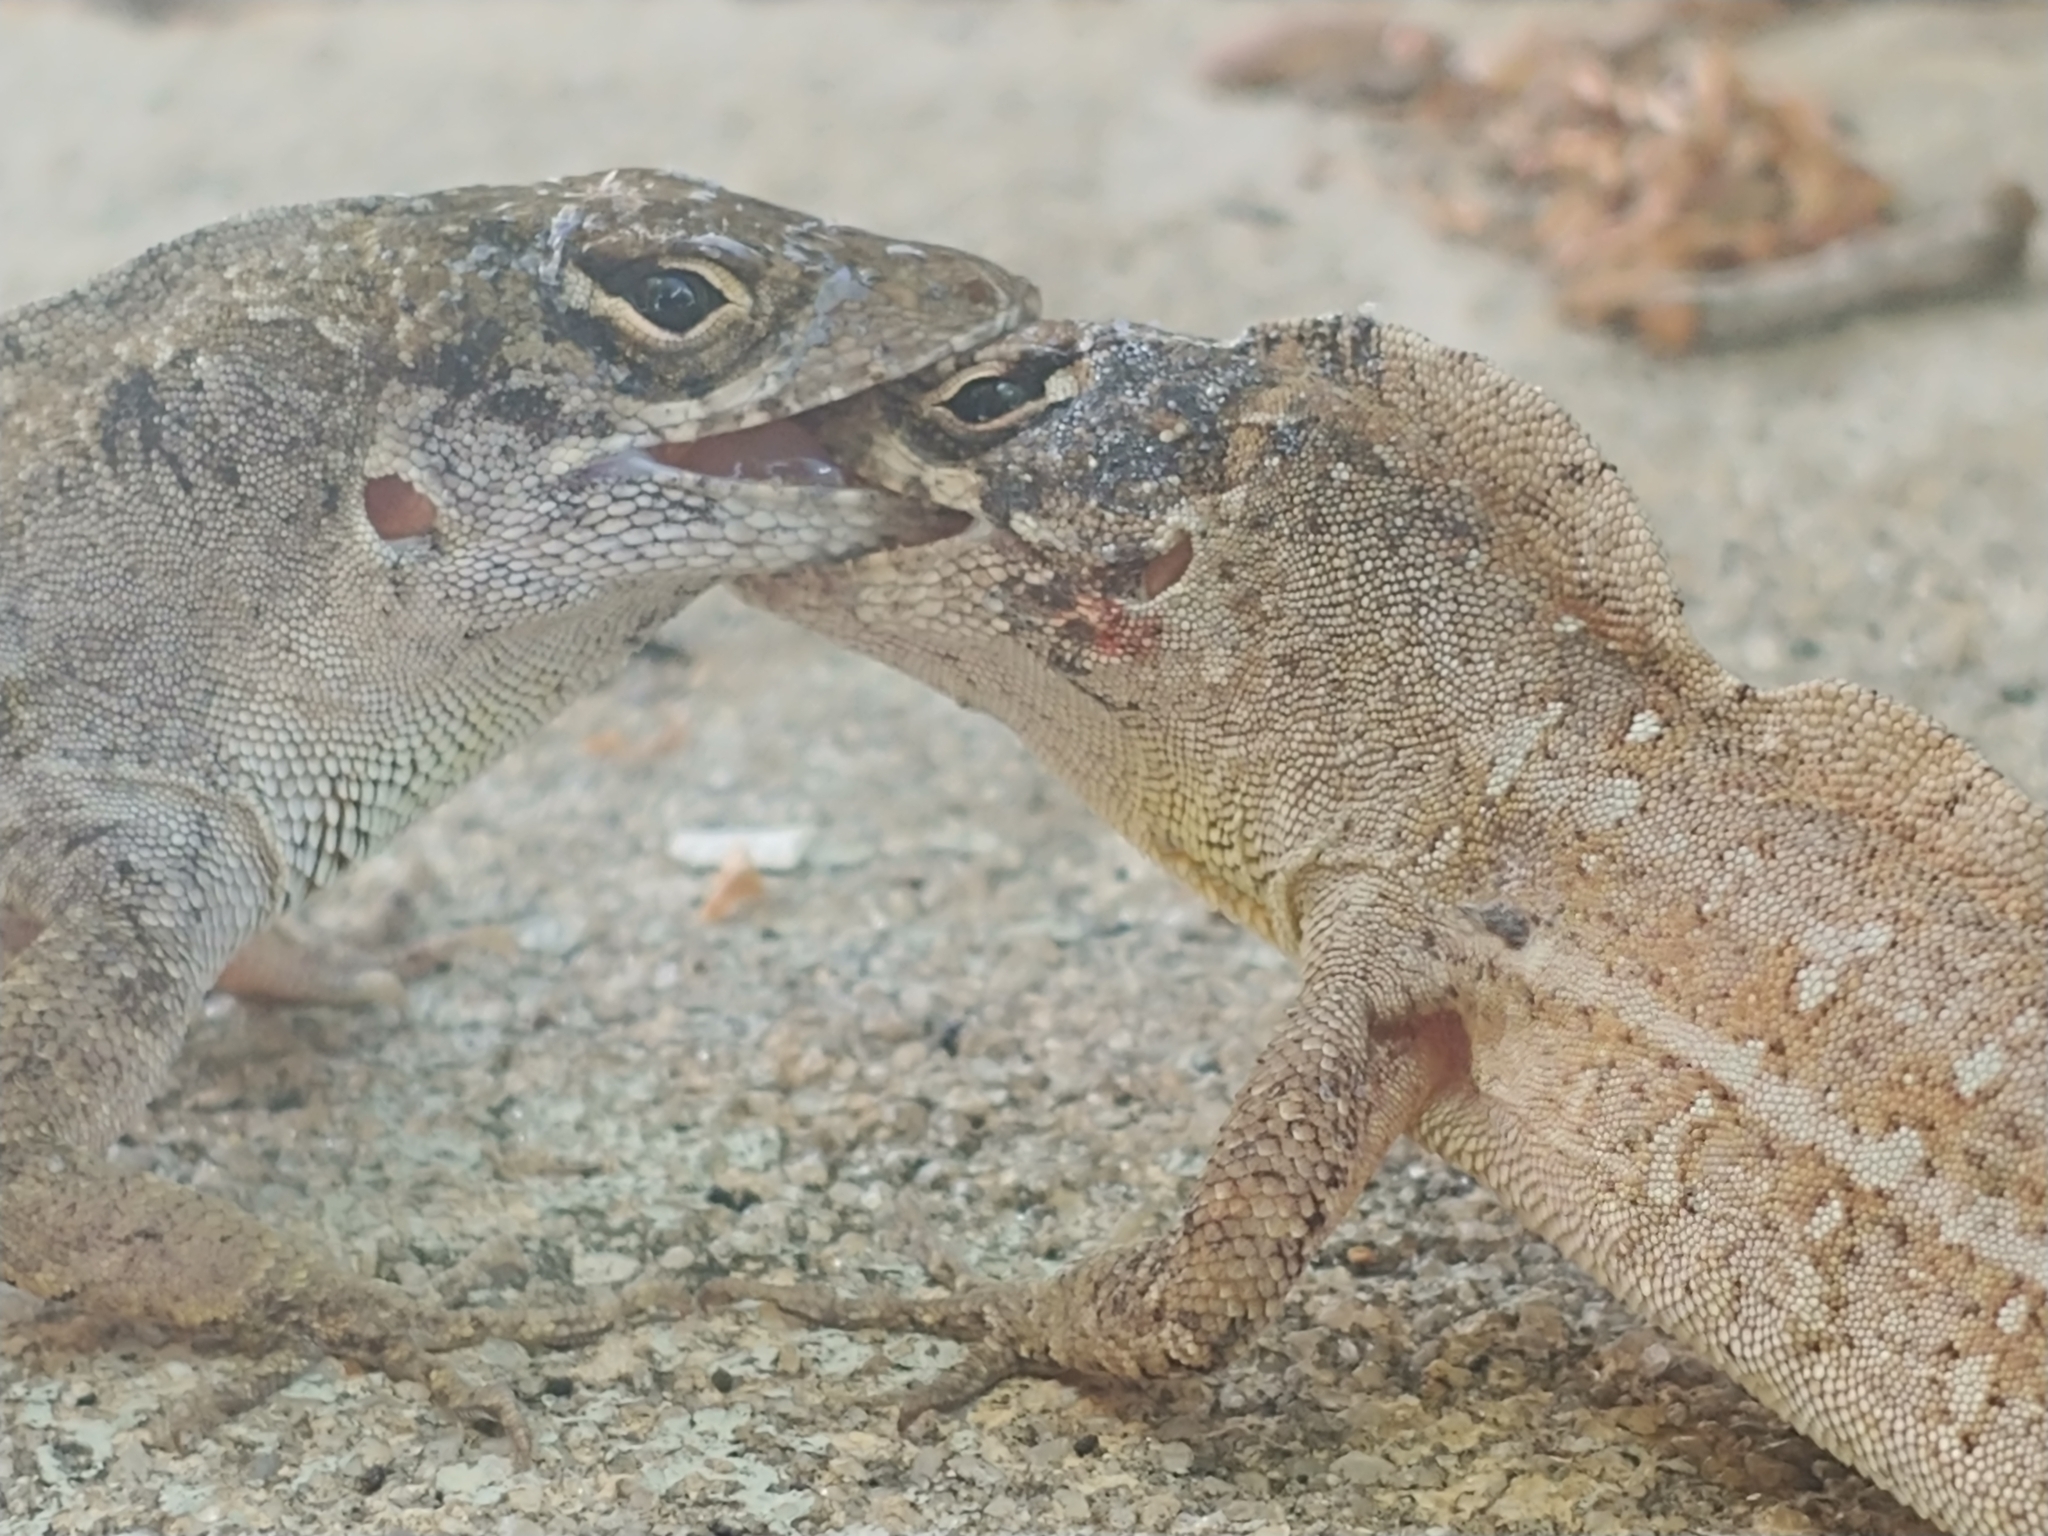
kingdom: Animalia
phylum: Chordata
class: Squamata
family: Dactyloidae
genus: Anolis
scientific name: Anolis sagrei
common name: Brown anole
